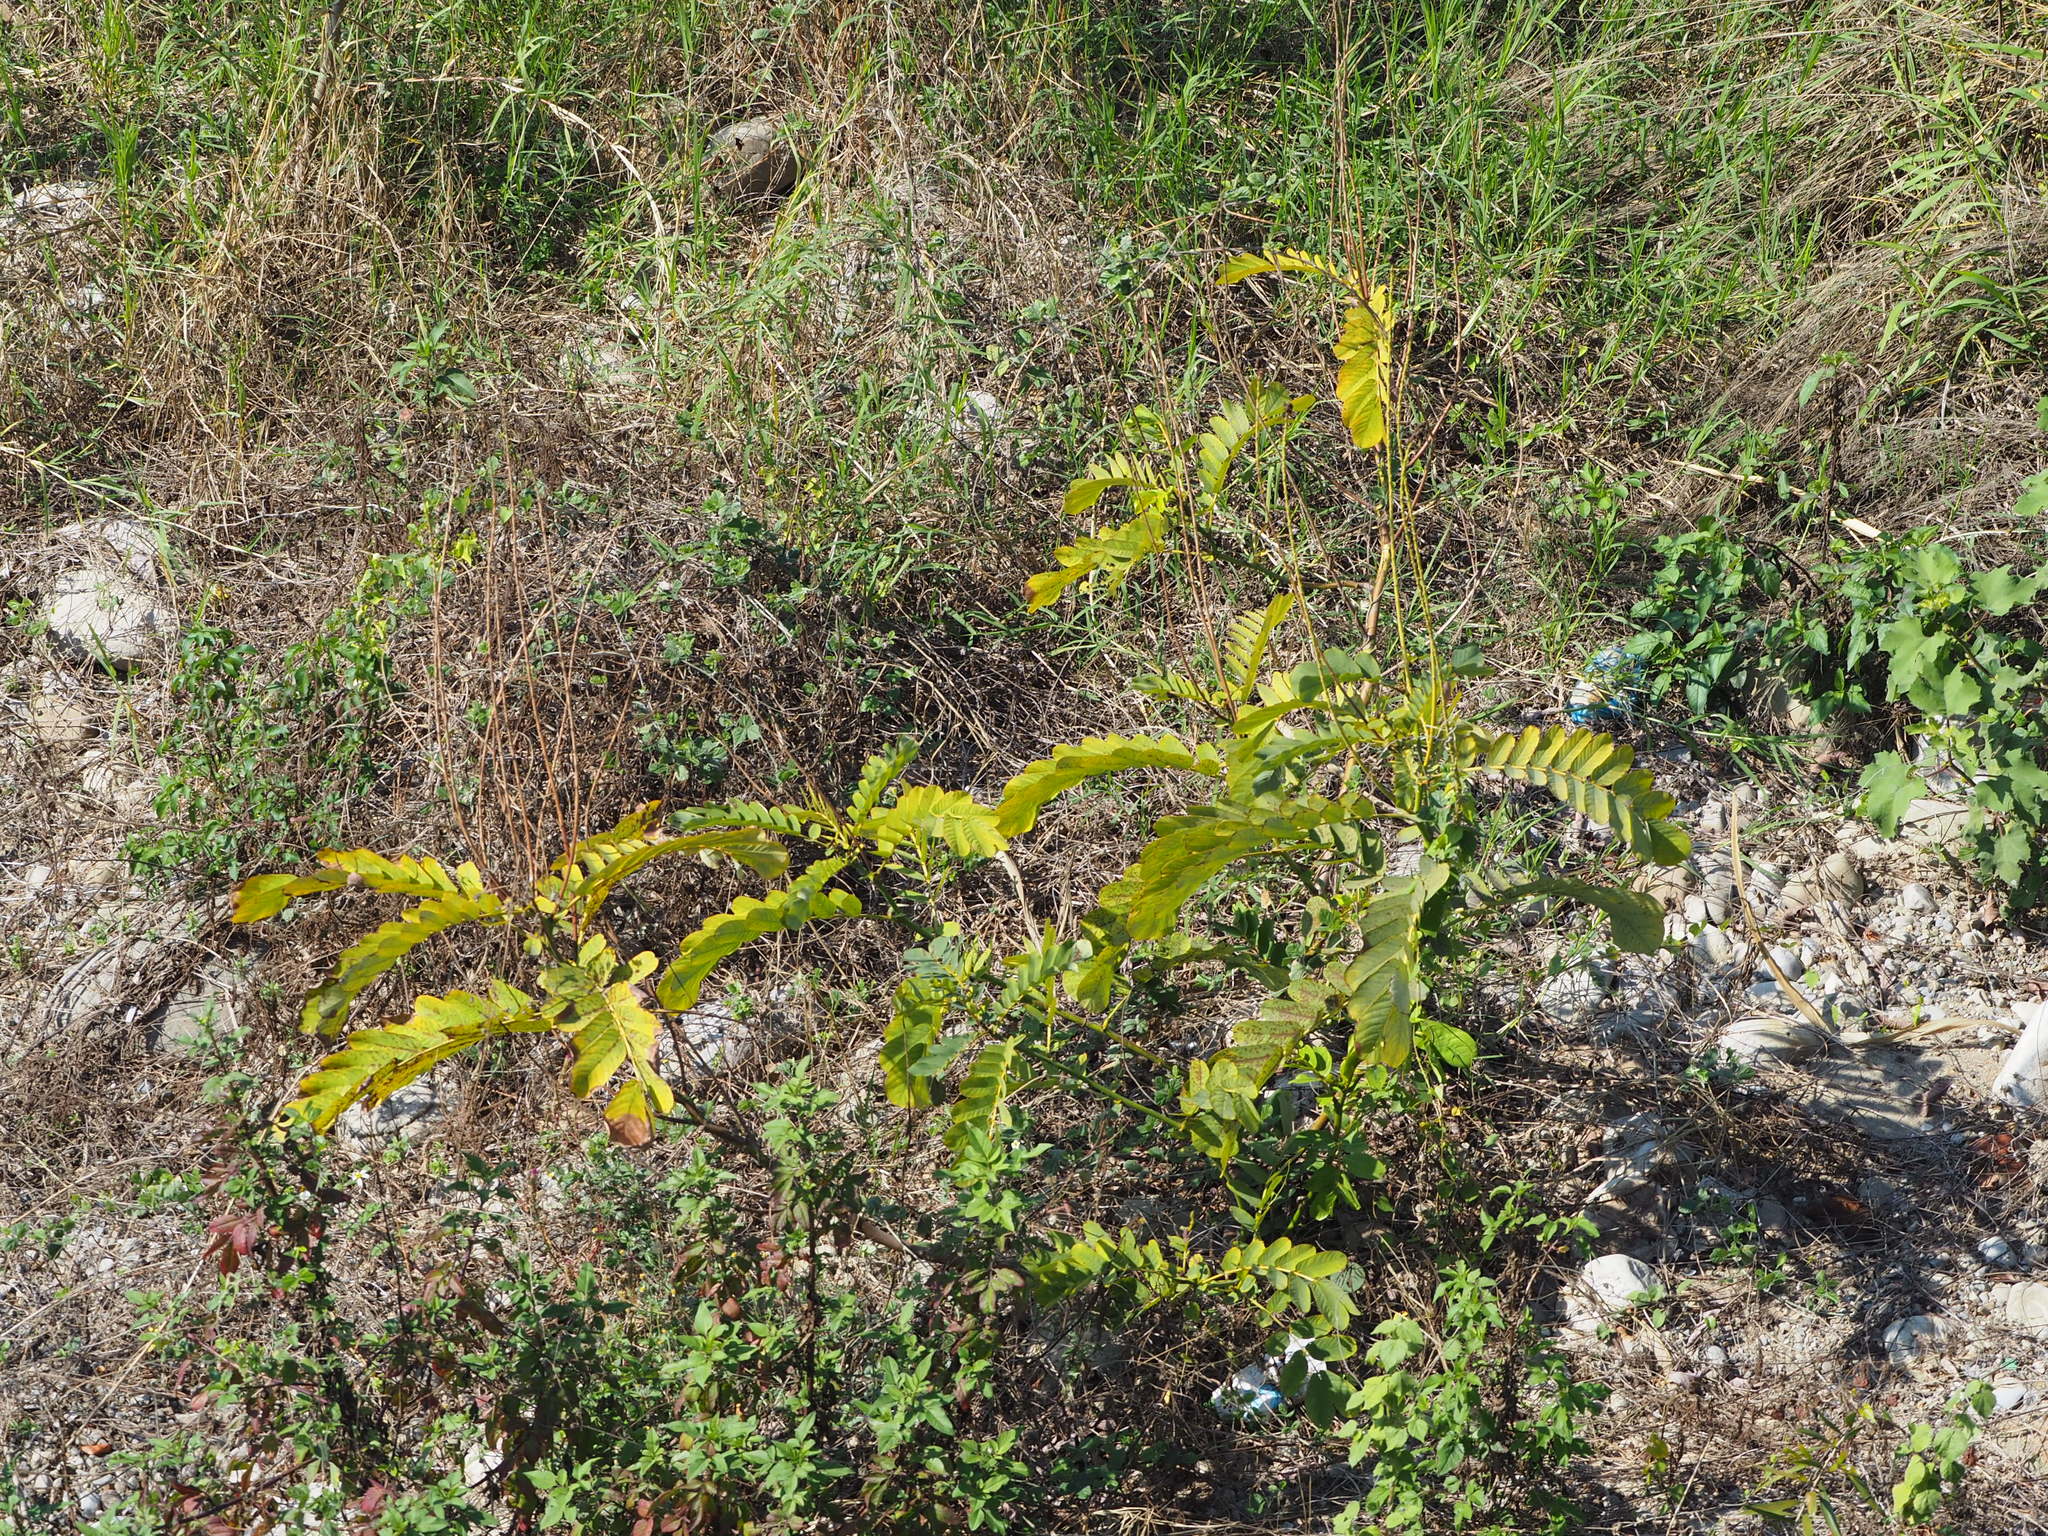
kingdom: Plantae
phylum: Tracheophyta
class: Magnoliopsida
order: Fabales
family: Fabaceae
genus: Senna
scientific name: Senna alata
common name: Emperor's candlesticks
